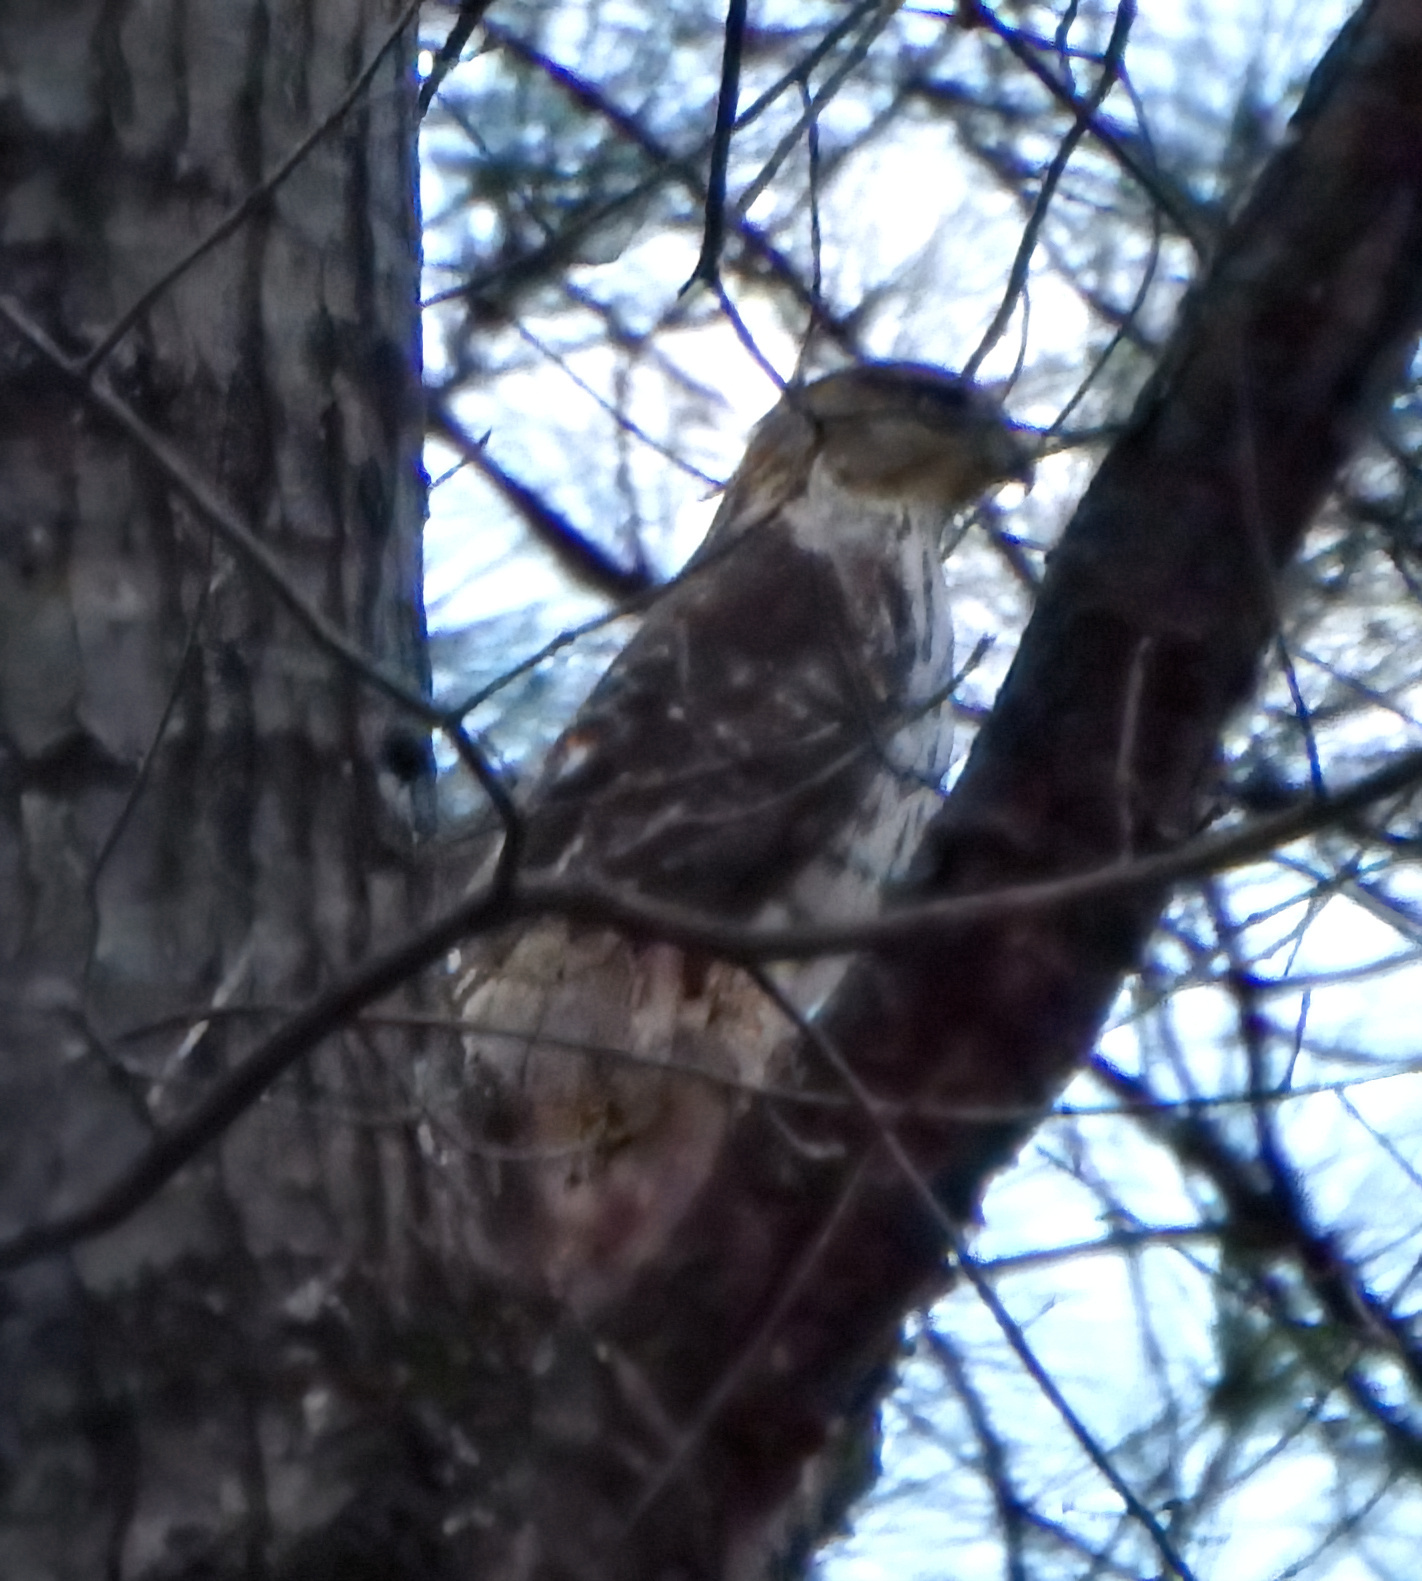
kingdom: Animalia
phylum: Chordata
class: Aves
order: Accipitriformes
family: Accipitridae
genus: Accipiter
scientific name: Accipiter cooperii
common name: Cooper's hawk
